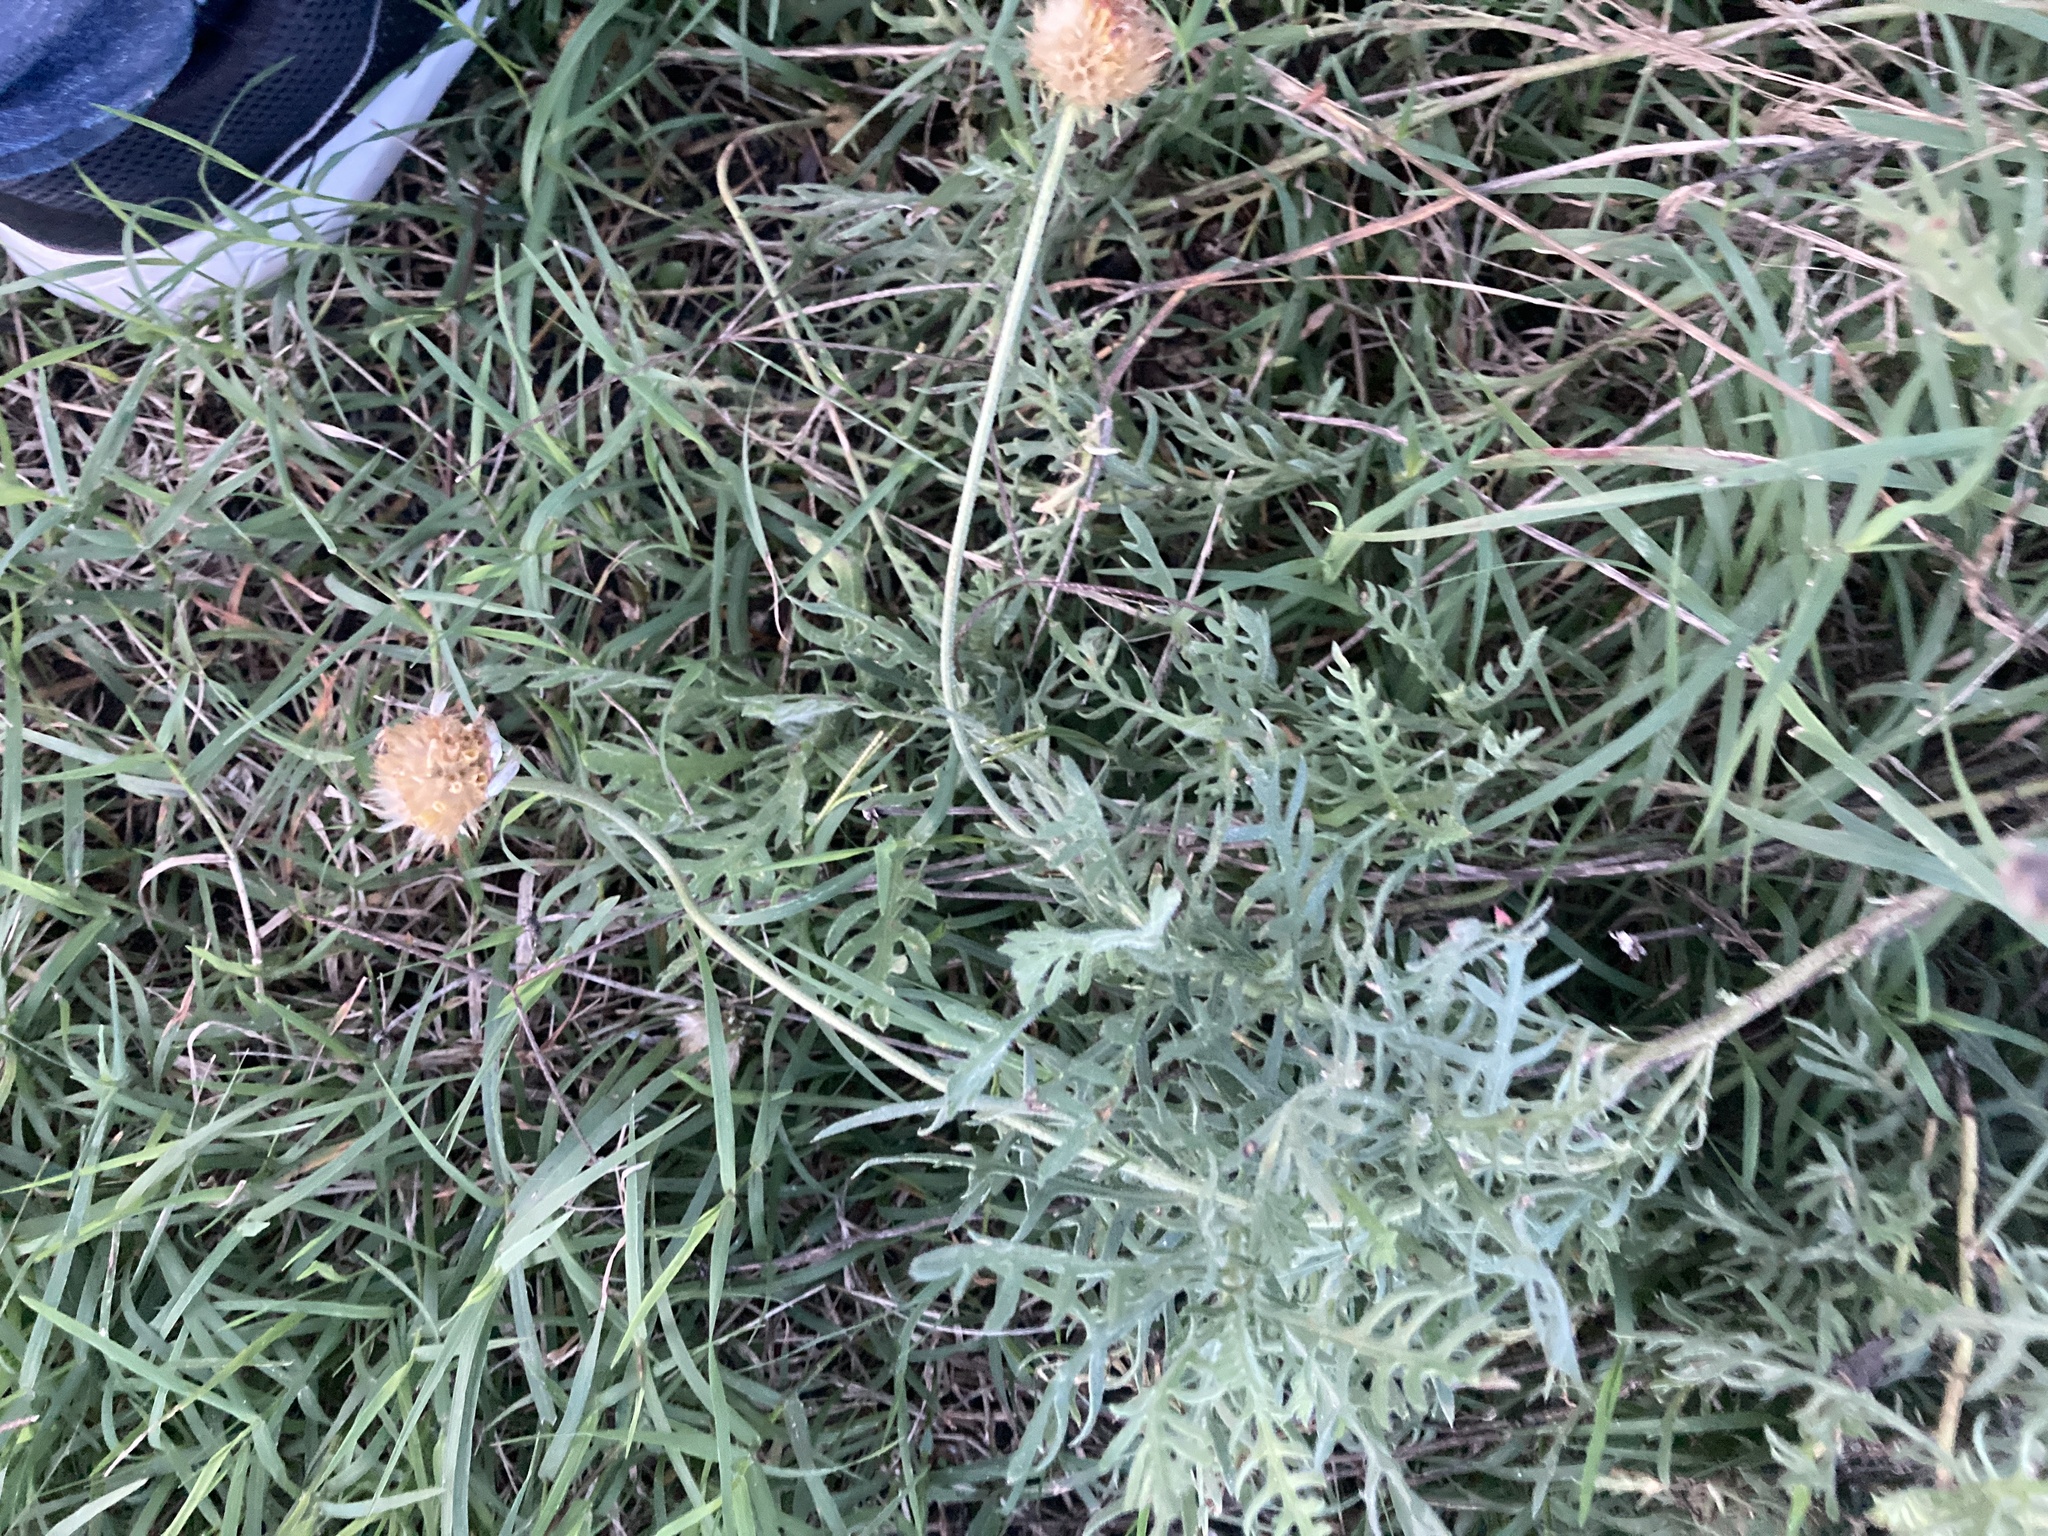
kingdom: Plantae
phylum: Tracheophyta
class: Magnoliopsida
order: Asterales
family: Asteraceae
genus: Gaillardia
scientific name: Gaillardia megapotamica
